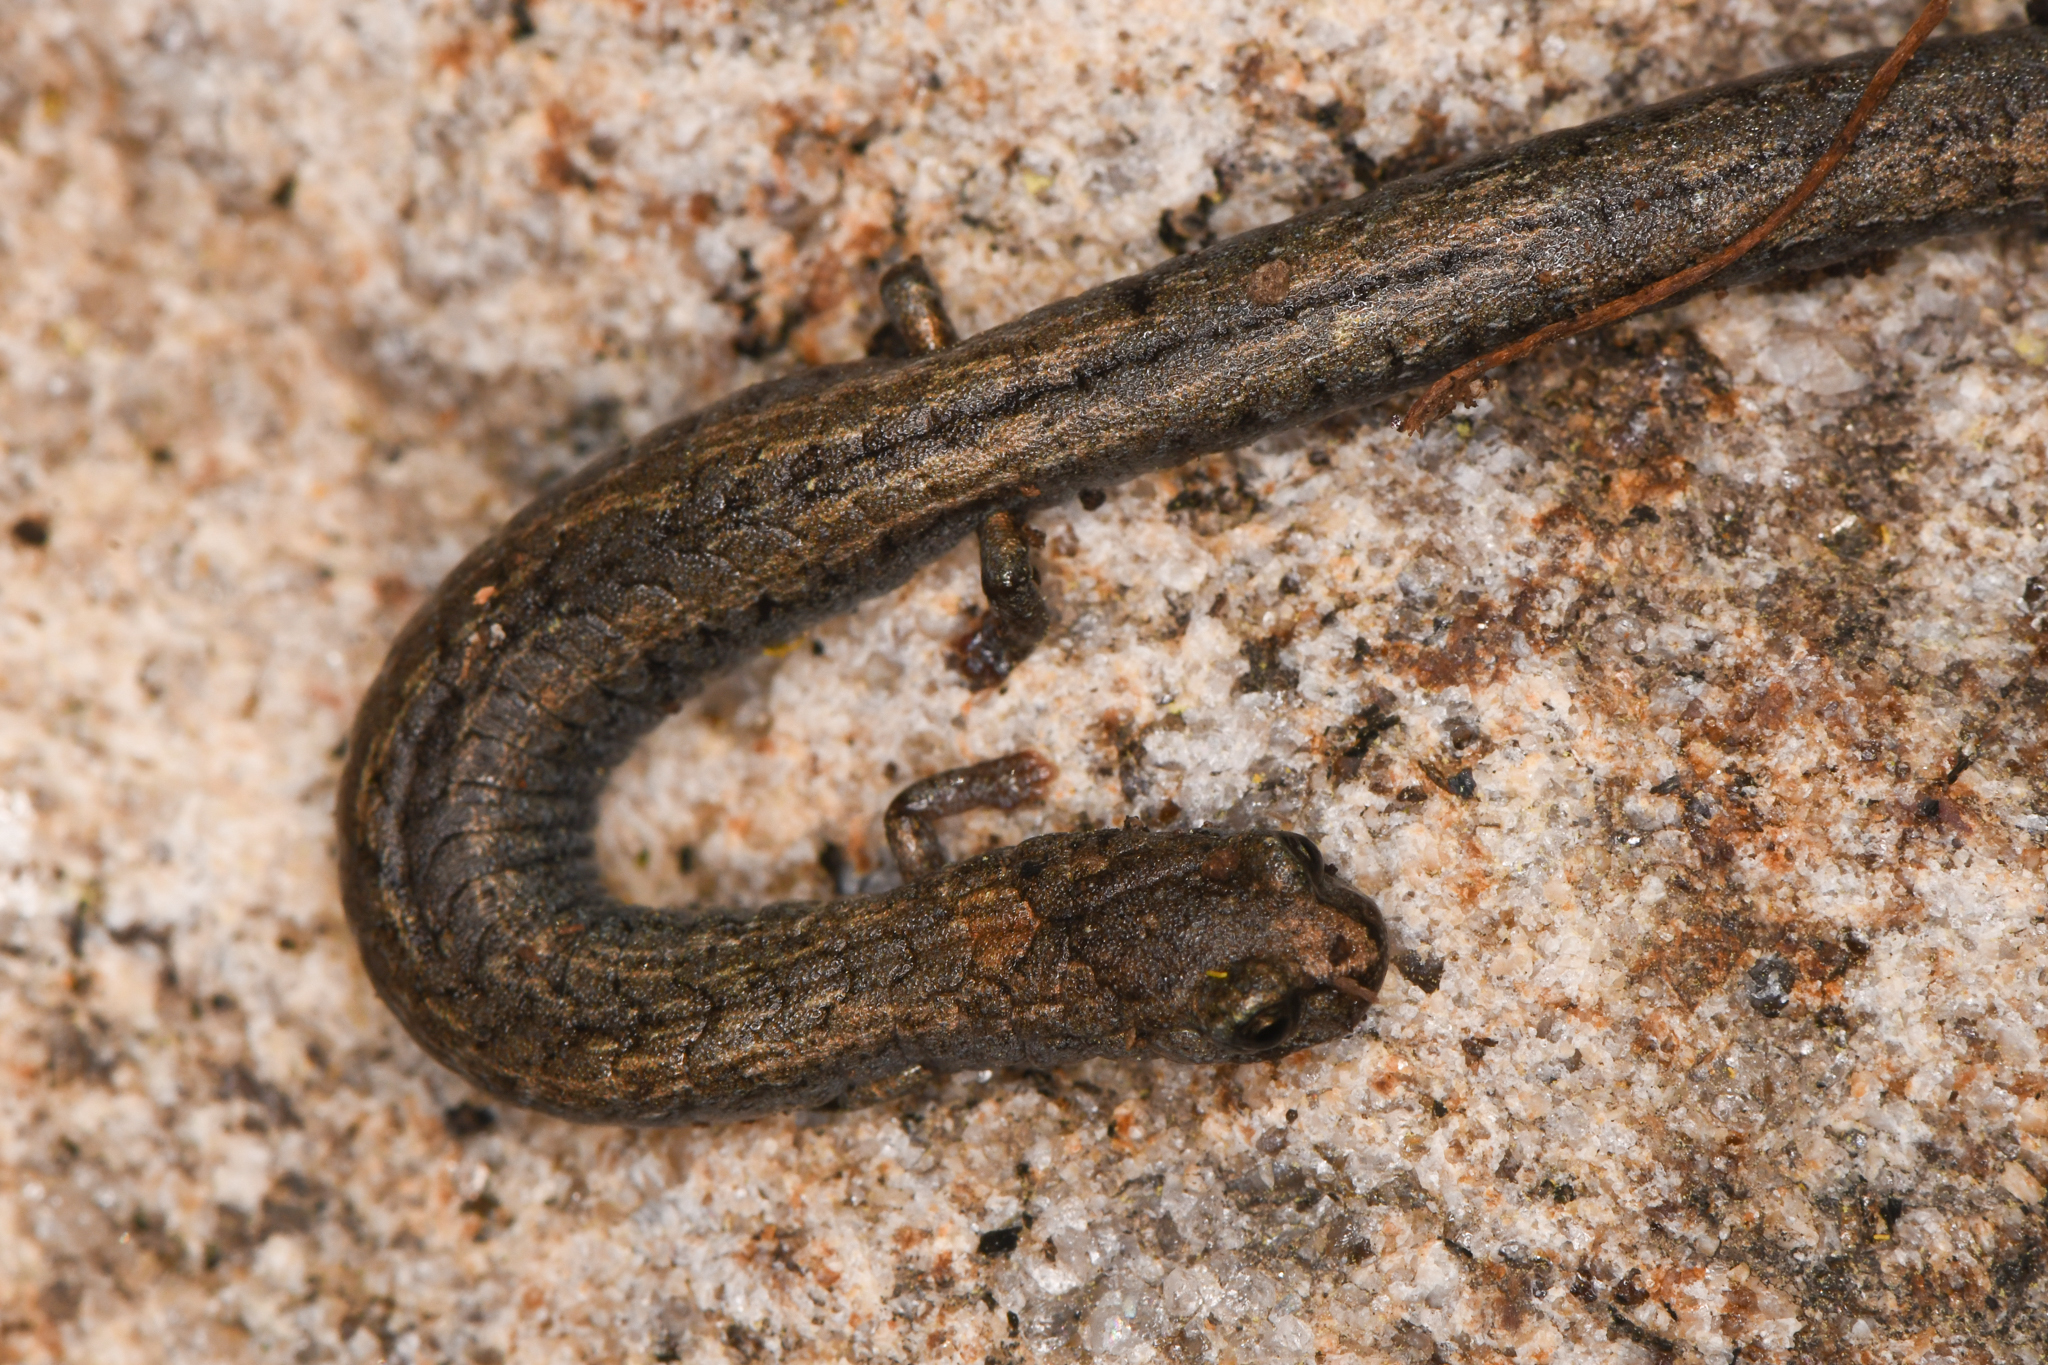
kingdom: Animalia
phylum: Chordata
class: Amphibia
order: Caudata
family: Plethodontidae
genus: Batrachoseps
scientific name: Batrachoseps gregarius
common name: Gregarious slender salamander
